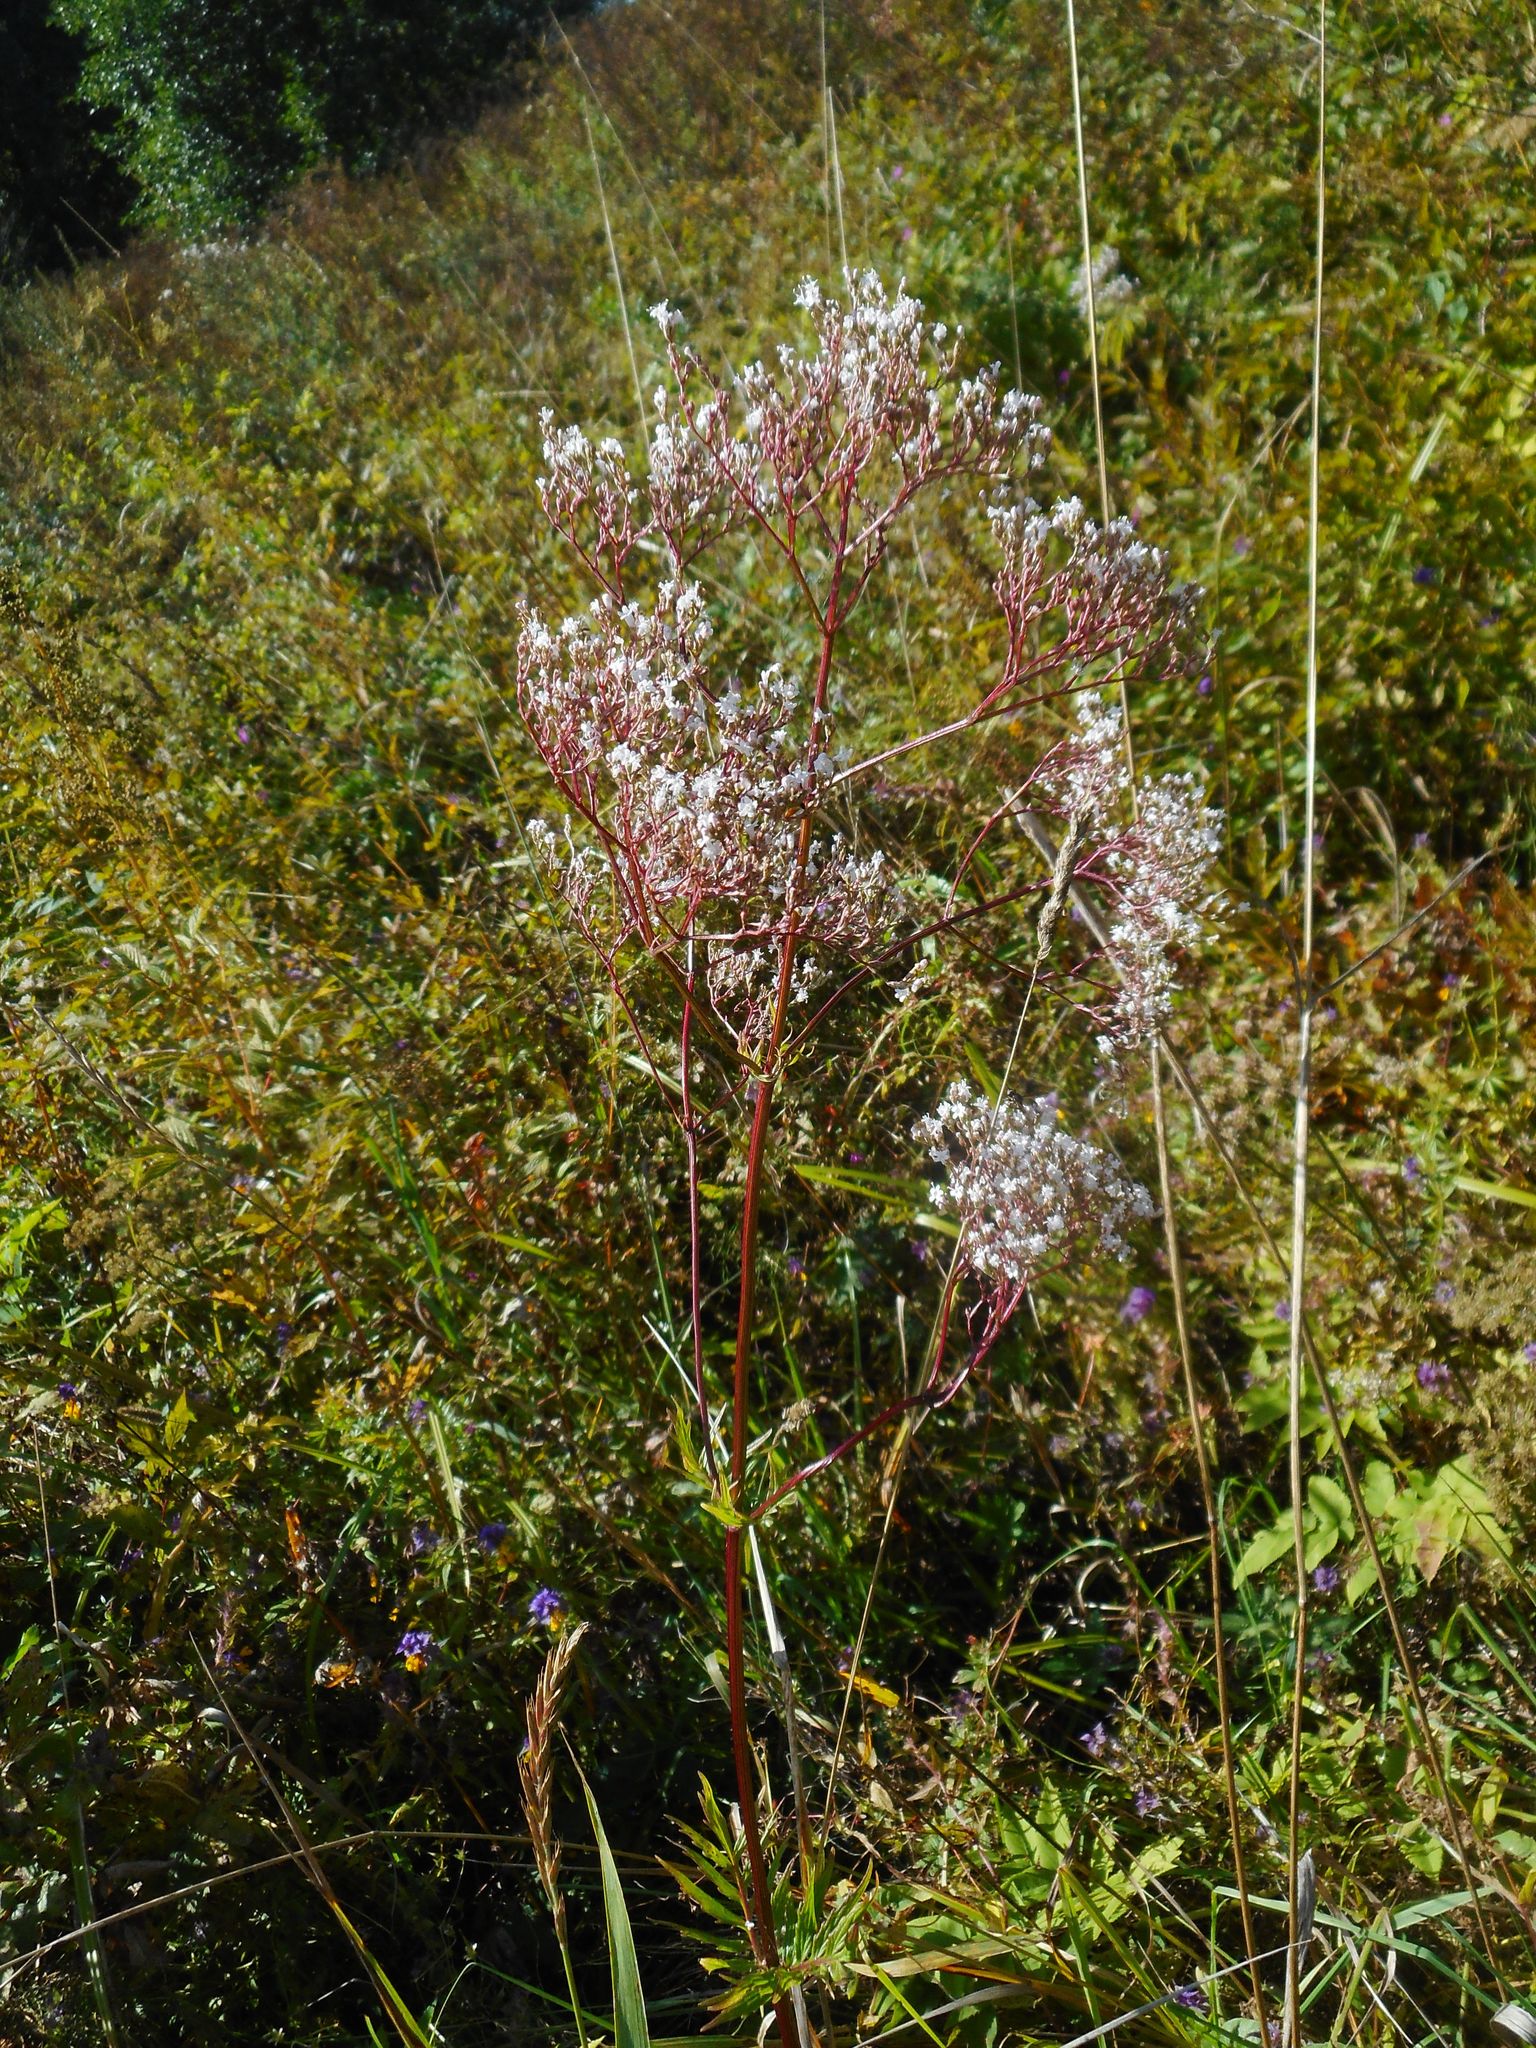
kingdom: Plantae
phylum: Tracheophyta
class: Magnoliopsida
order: Dipsacales
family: Caprifoliaceae
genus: Valeriana
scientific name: Valeriana officinalis
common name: Common valerian
